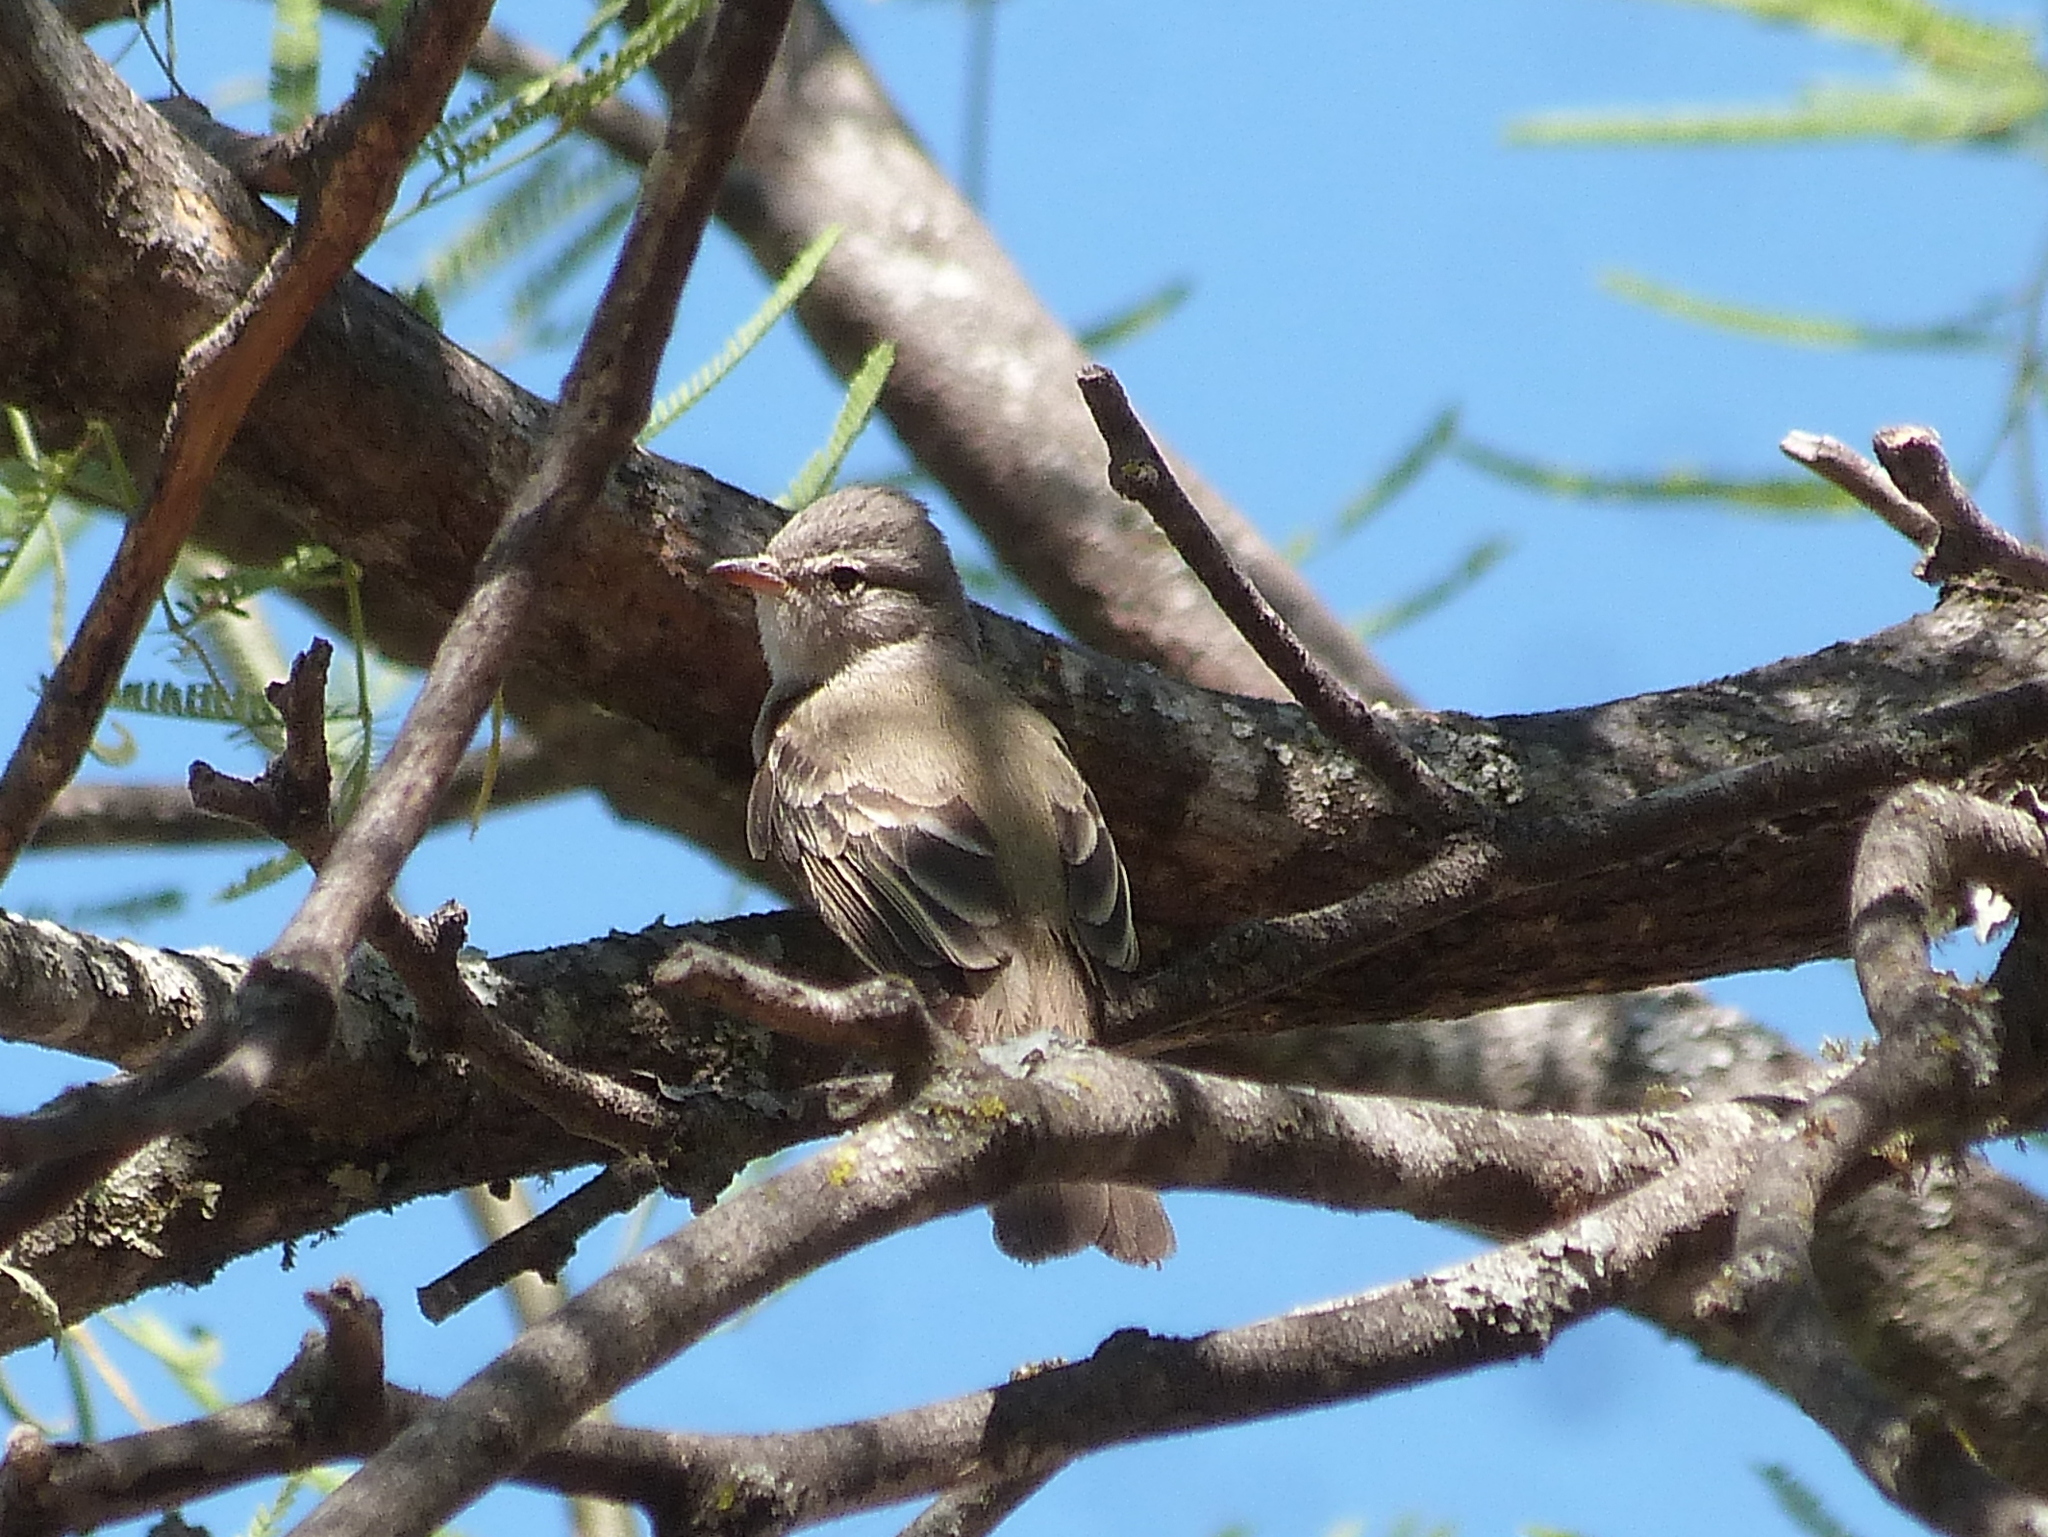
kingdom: Animalia
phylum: Chordata
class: Aves
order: Passeriformes
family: Tyrannidae
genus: Camptostoma
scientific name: Camptostoma obsoletum
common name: Southern beardless-tyrannulet
